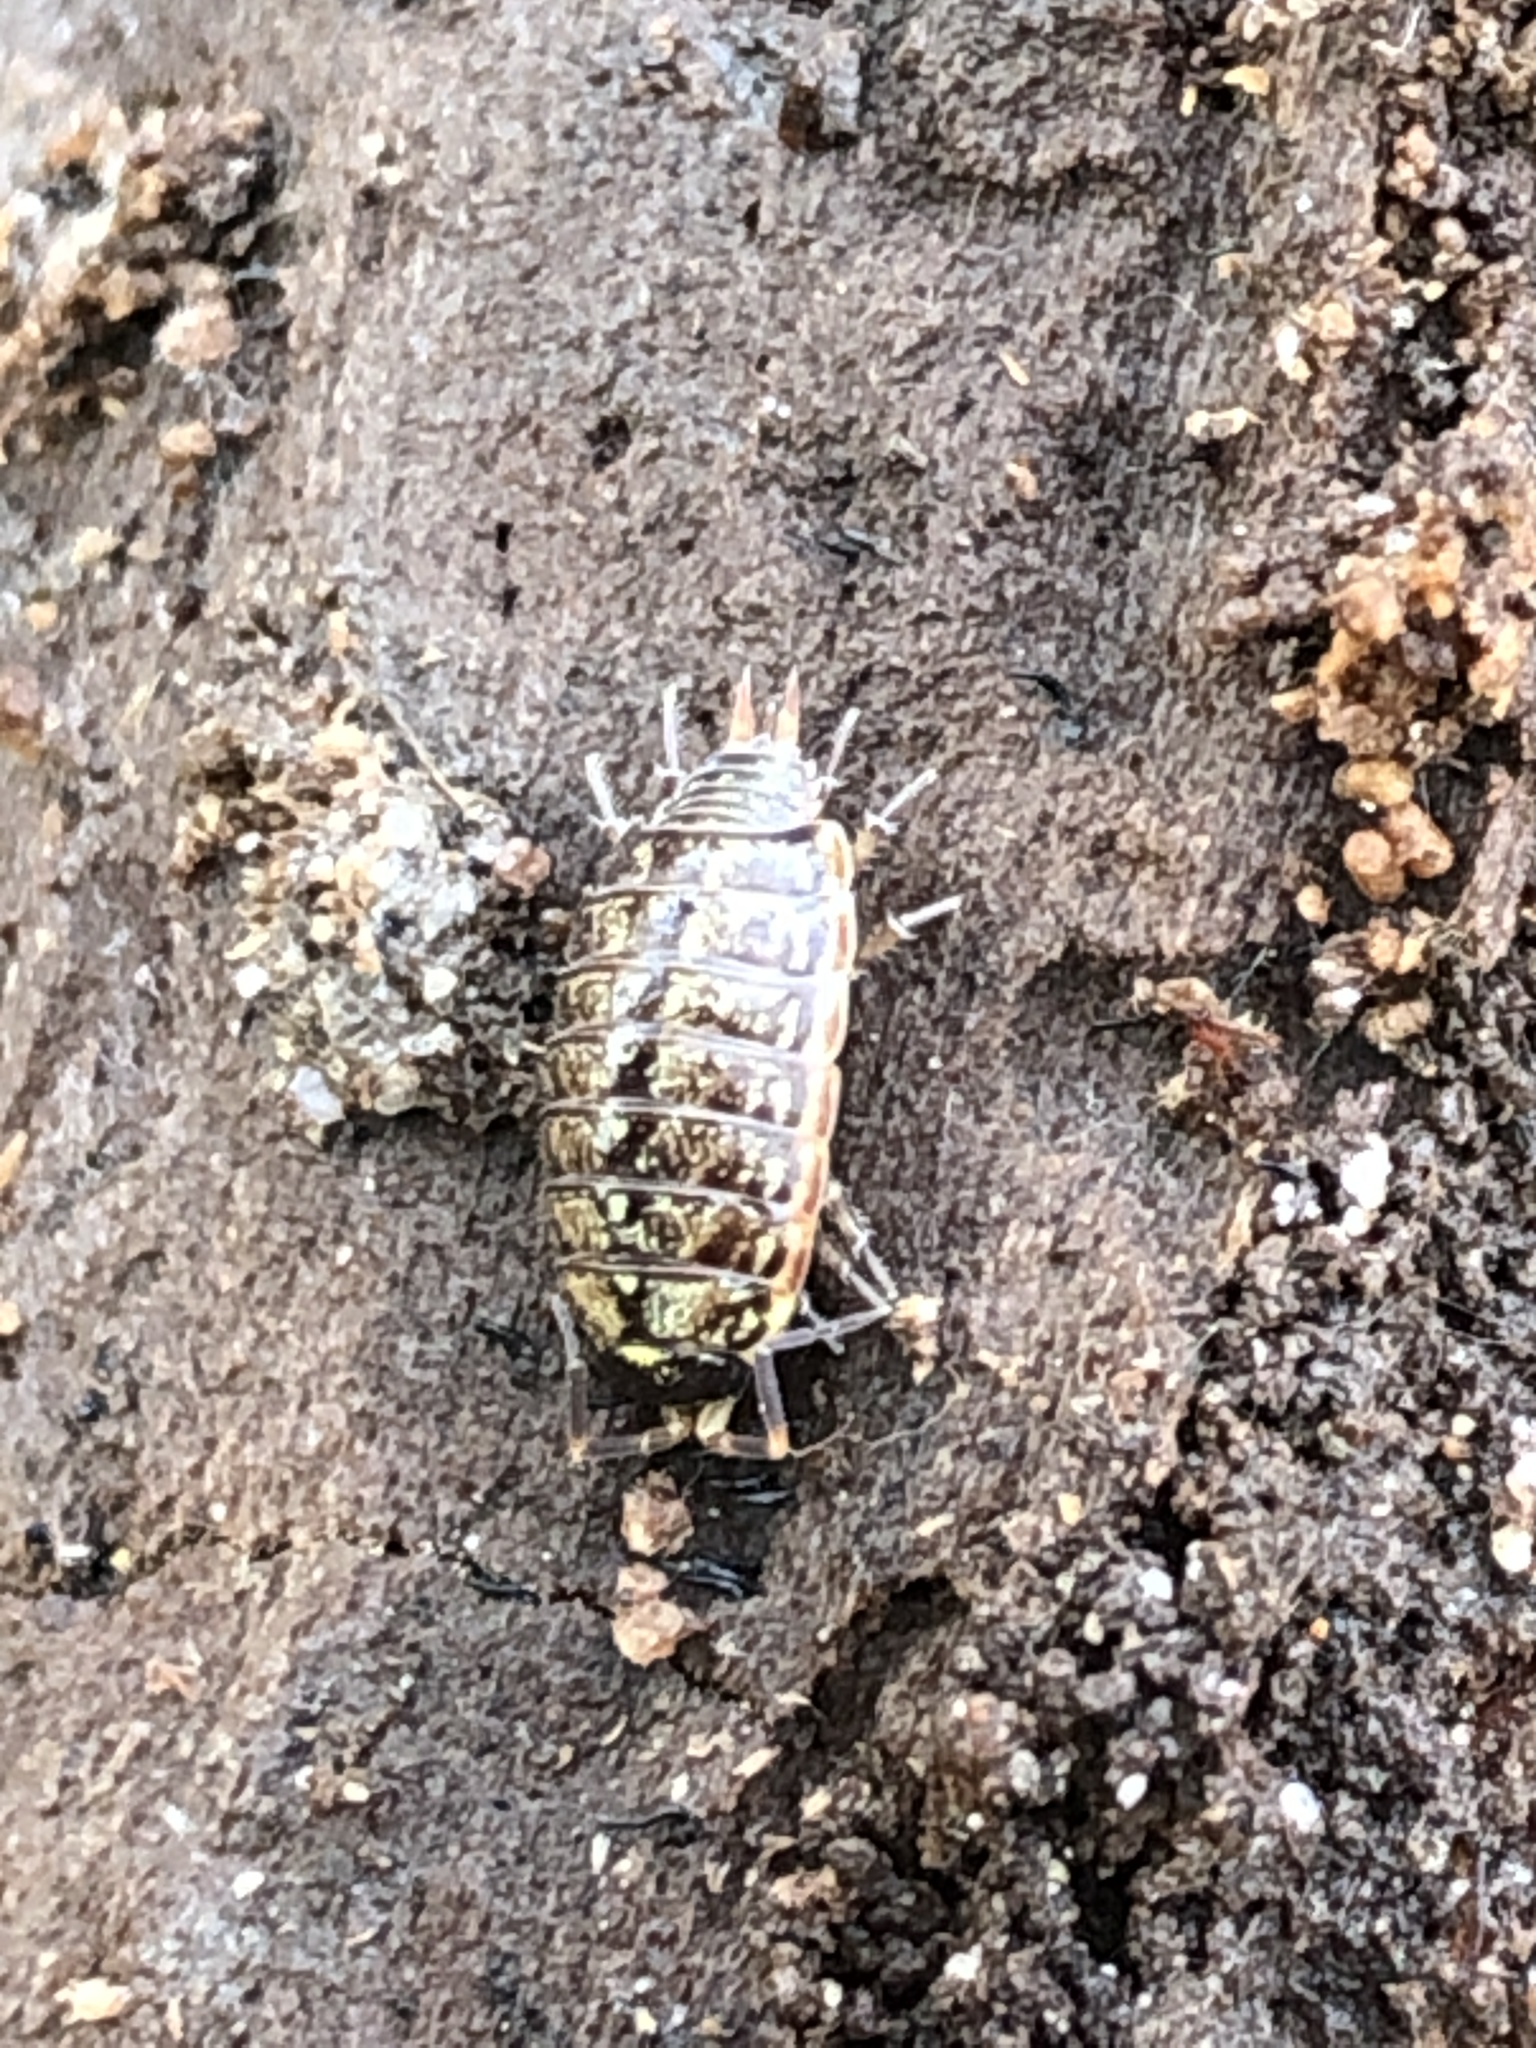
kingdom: Animalia
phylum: Arthropoda
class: Malacostraca
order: Isopoda
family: Philosciidae
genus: Philoscia
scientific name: Philoscia muscorum
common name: Common striped woodlouse
